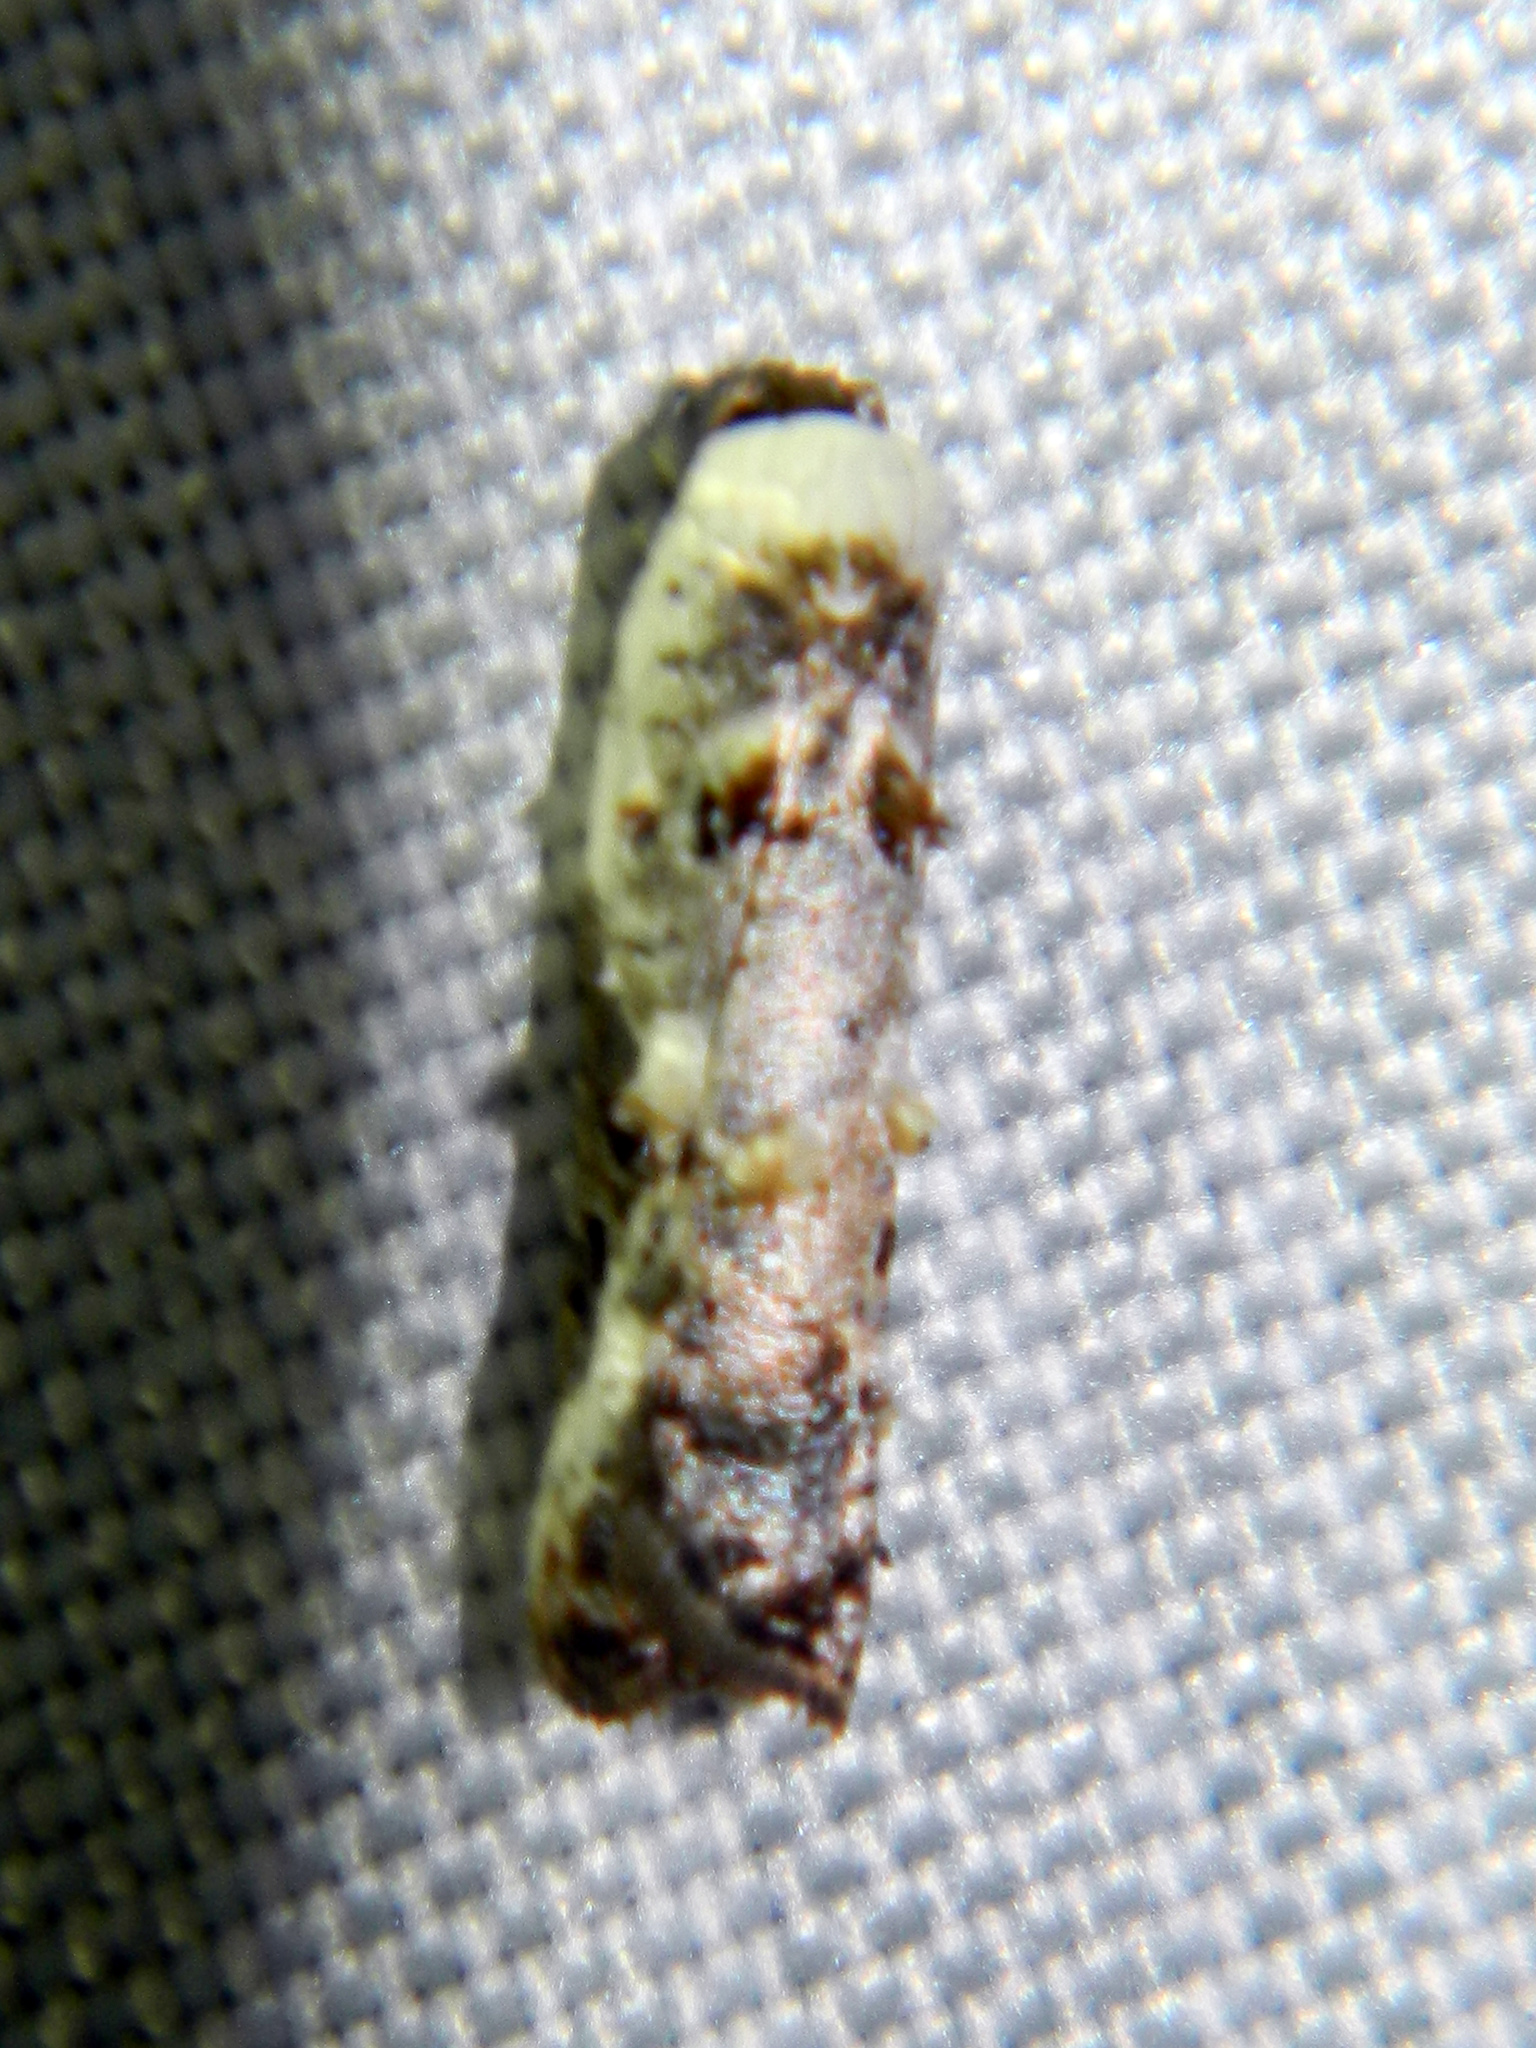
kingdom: Animalia
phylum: Arthropoda
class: Insecta
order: Lepidoptera
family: Tortricidae
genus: Acleris
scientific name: Acleris nivisellana
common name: Snowy-shouldered acleris moth
